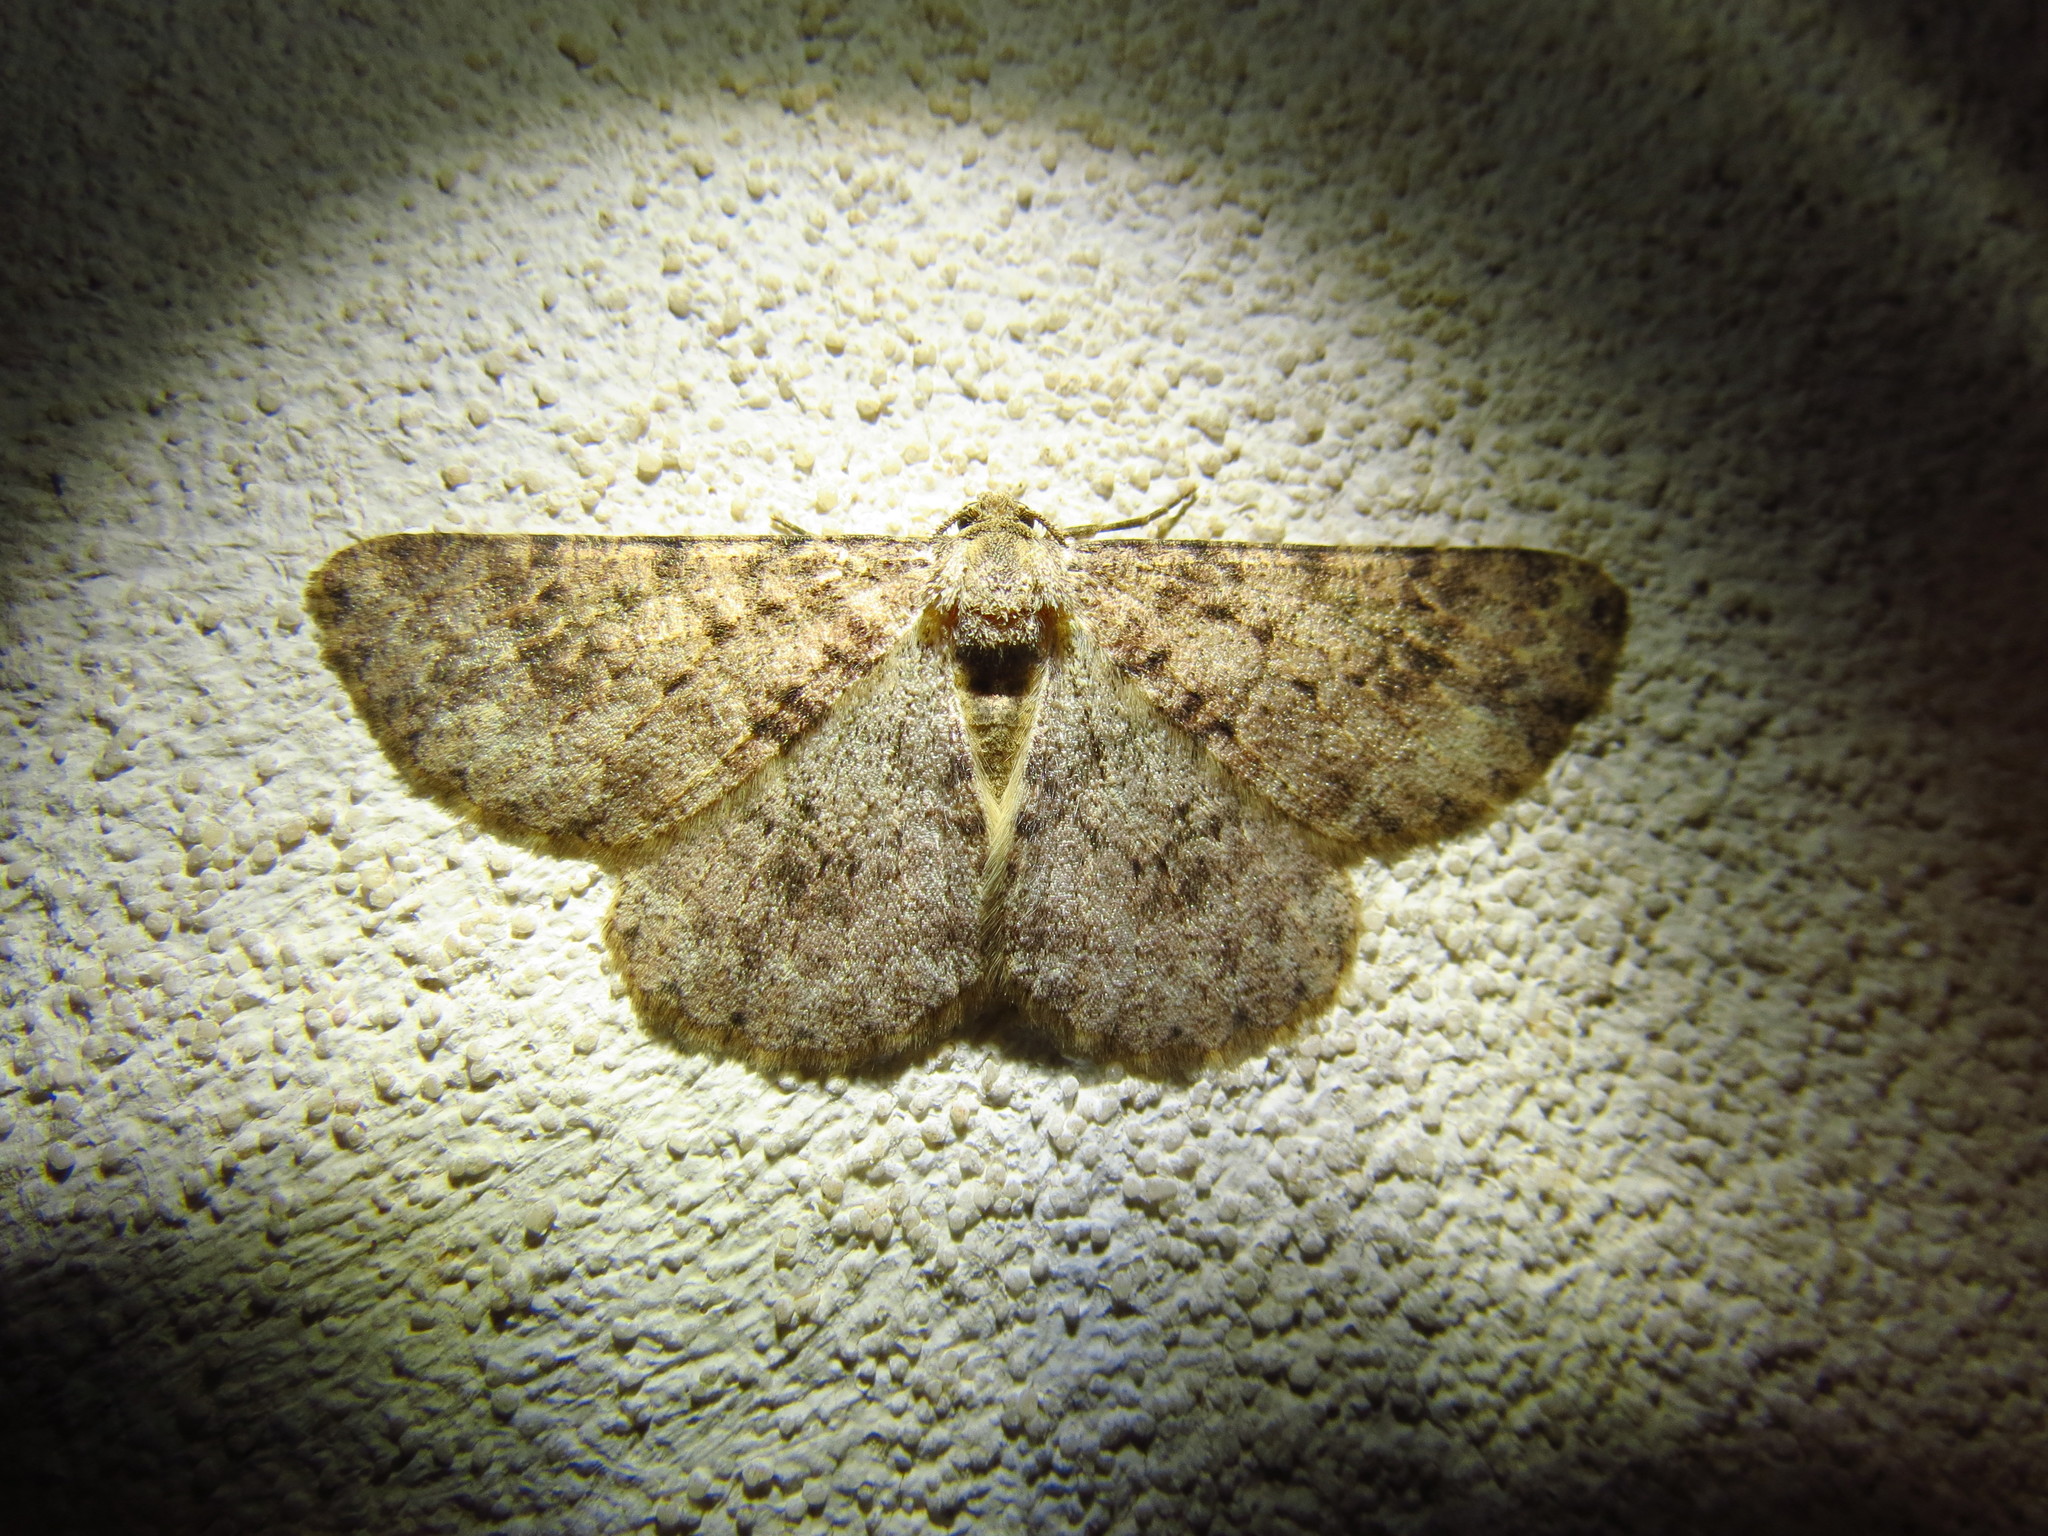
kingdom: Animalia
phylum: Arthropoda
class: Insecta
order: Lepidoptera
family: Geometridae
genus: Stenoporpia
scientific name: Stenoporpia margueritae
